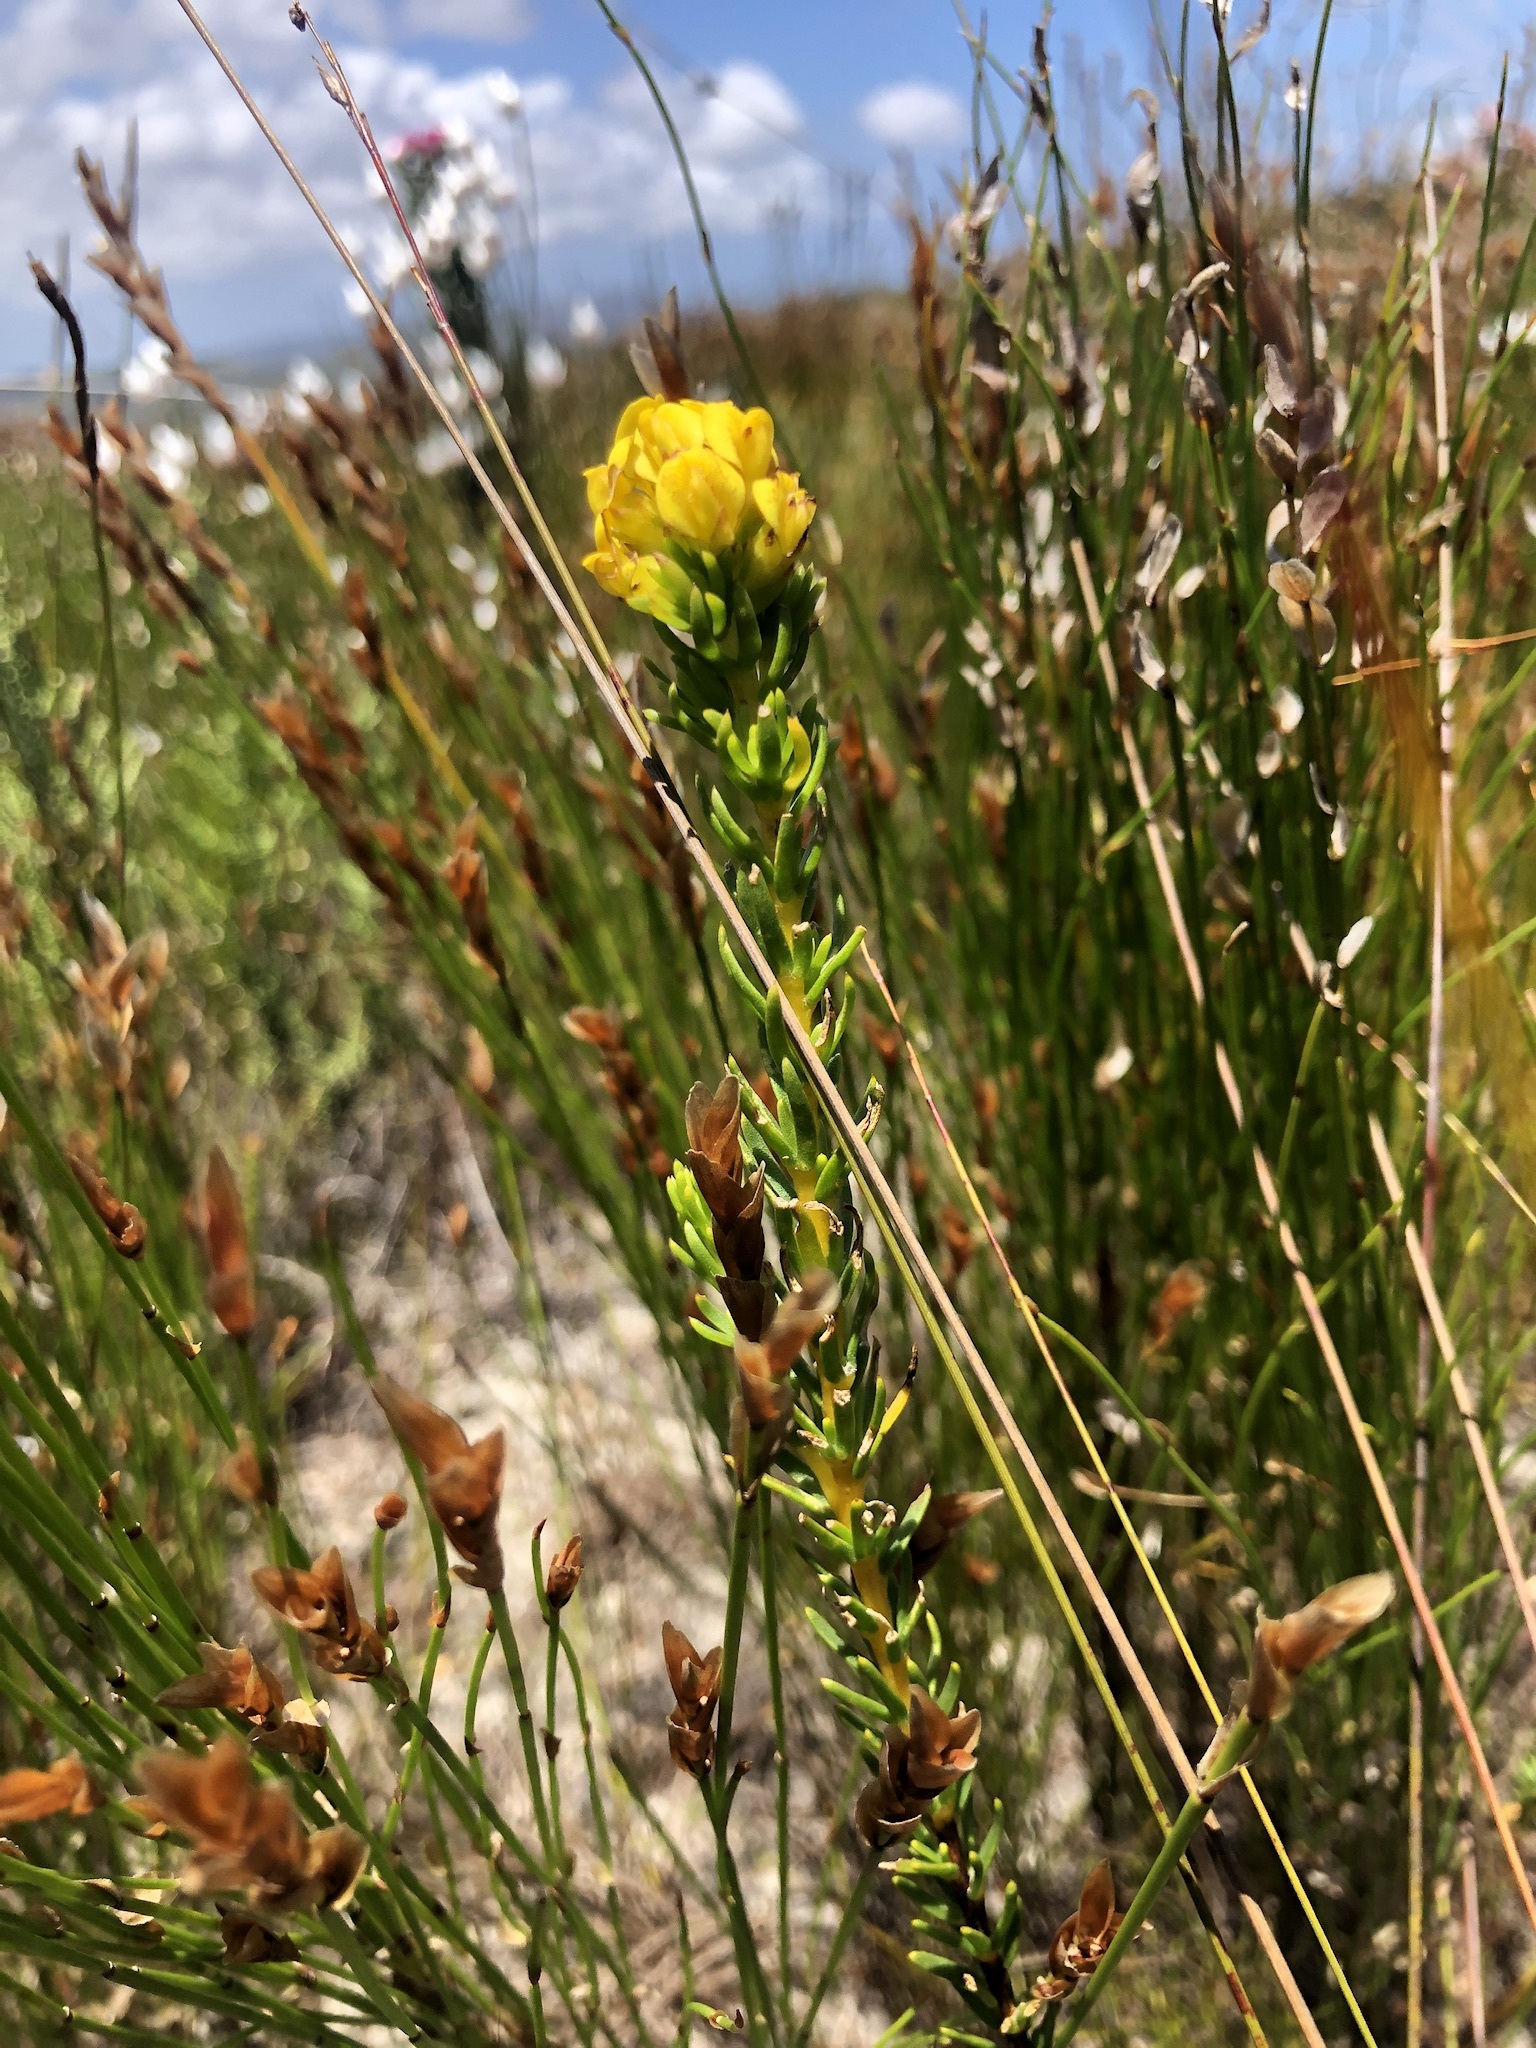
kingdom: Plantae
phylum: Tracheophyta
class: Magnoliopsida
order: Fabales
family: Fabaceae
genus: Aspalathus
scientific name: Aspalathus callosa
